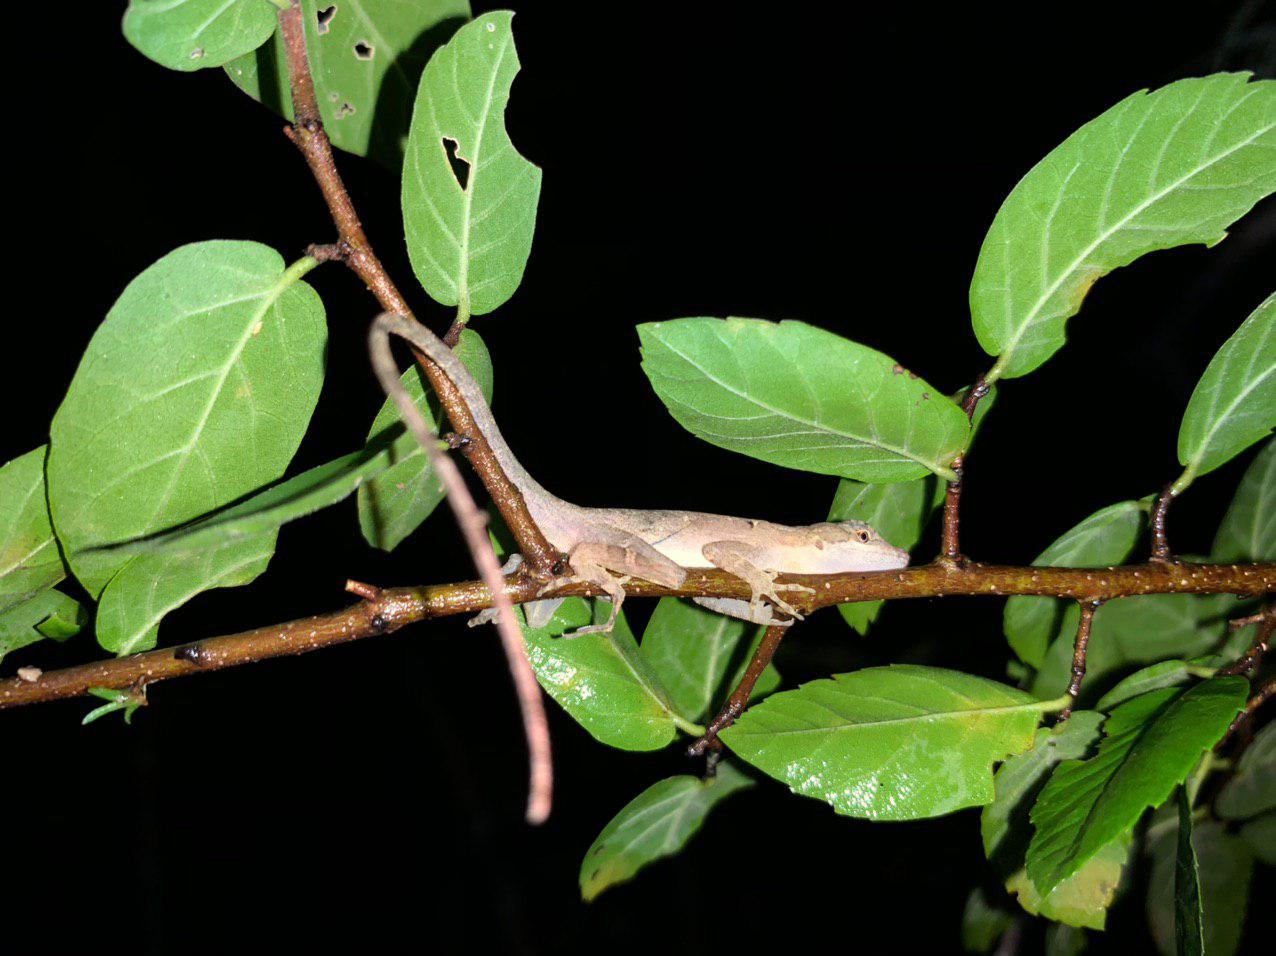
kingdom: Animalia
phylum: Chordata
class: Squamata
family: Dactyloidae
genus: Anolis
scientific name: Anolis rodriguezii
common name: Middle american smooth anole
